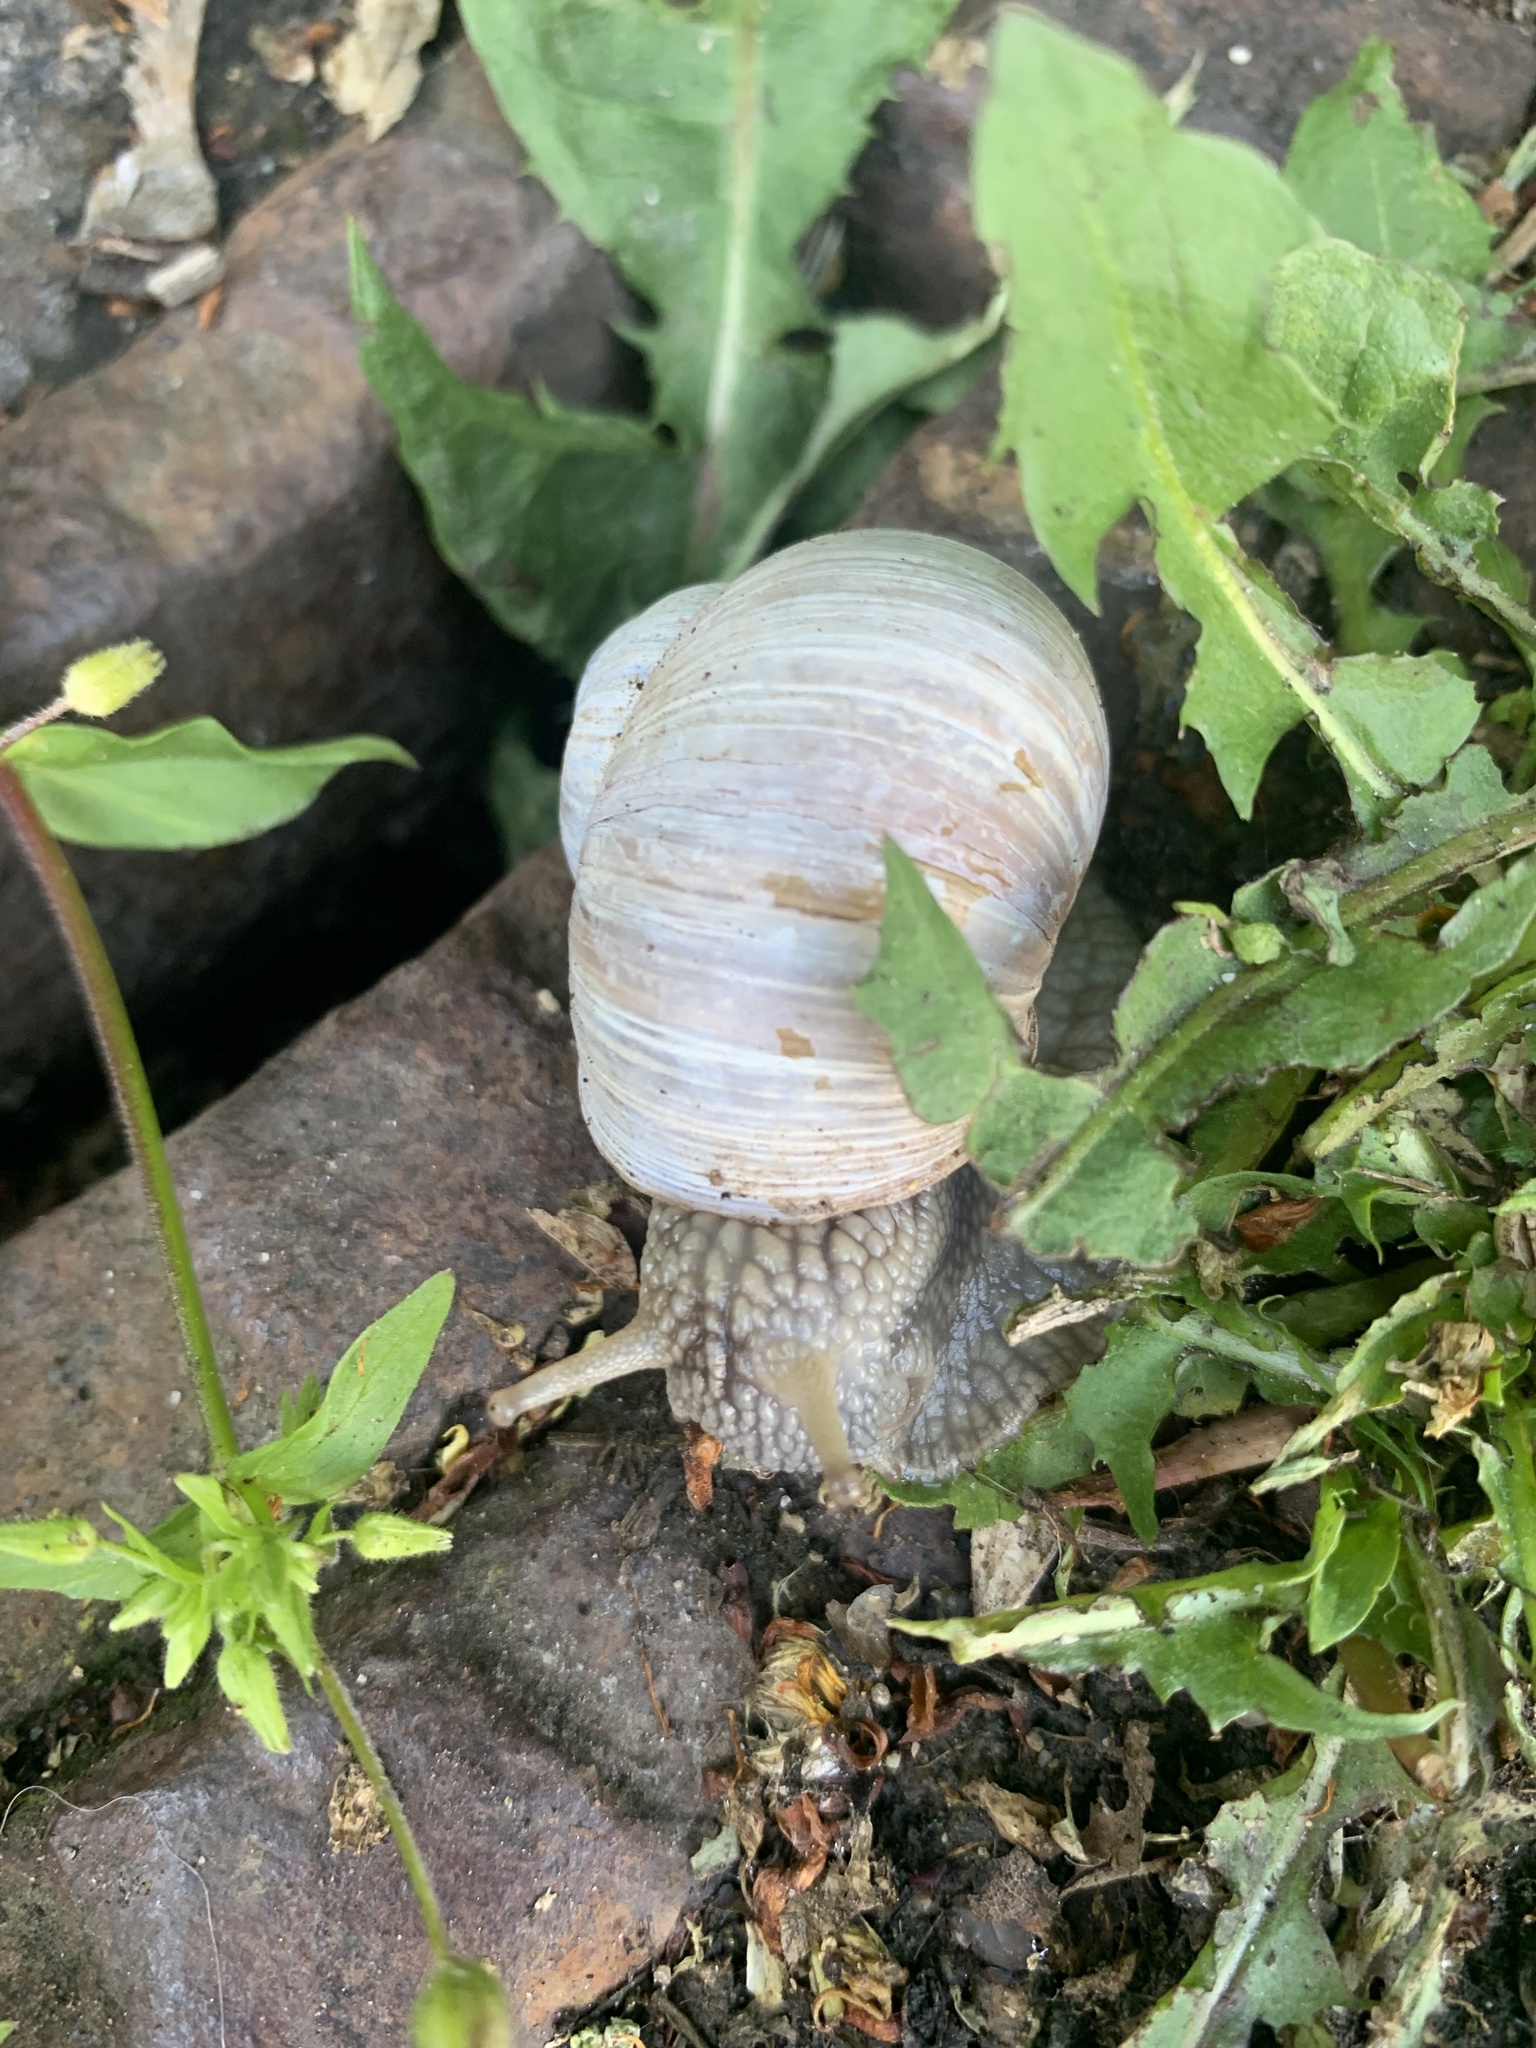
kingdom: Animalia
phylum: Mollusca
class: Gastropoda
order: Stylommatophora
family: Helicidae
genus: Helix
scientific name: Helix pomatia
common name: Roman snail
